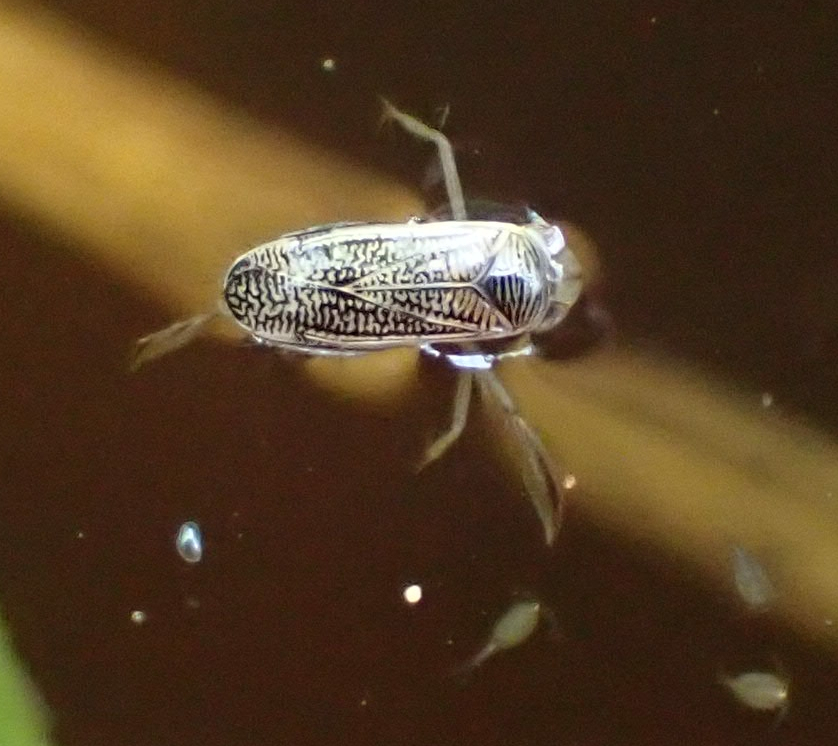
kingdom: Animalia
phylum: Arthropoda
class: Insecta
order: Hemiptera
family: Corixidae
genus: Sigara
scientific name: Sigara
